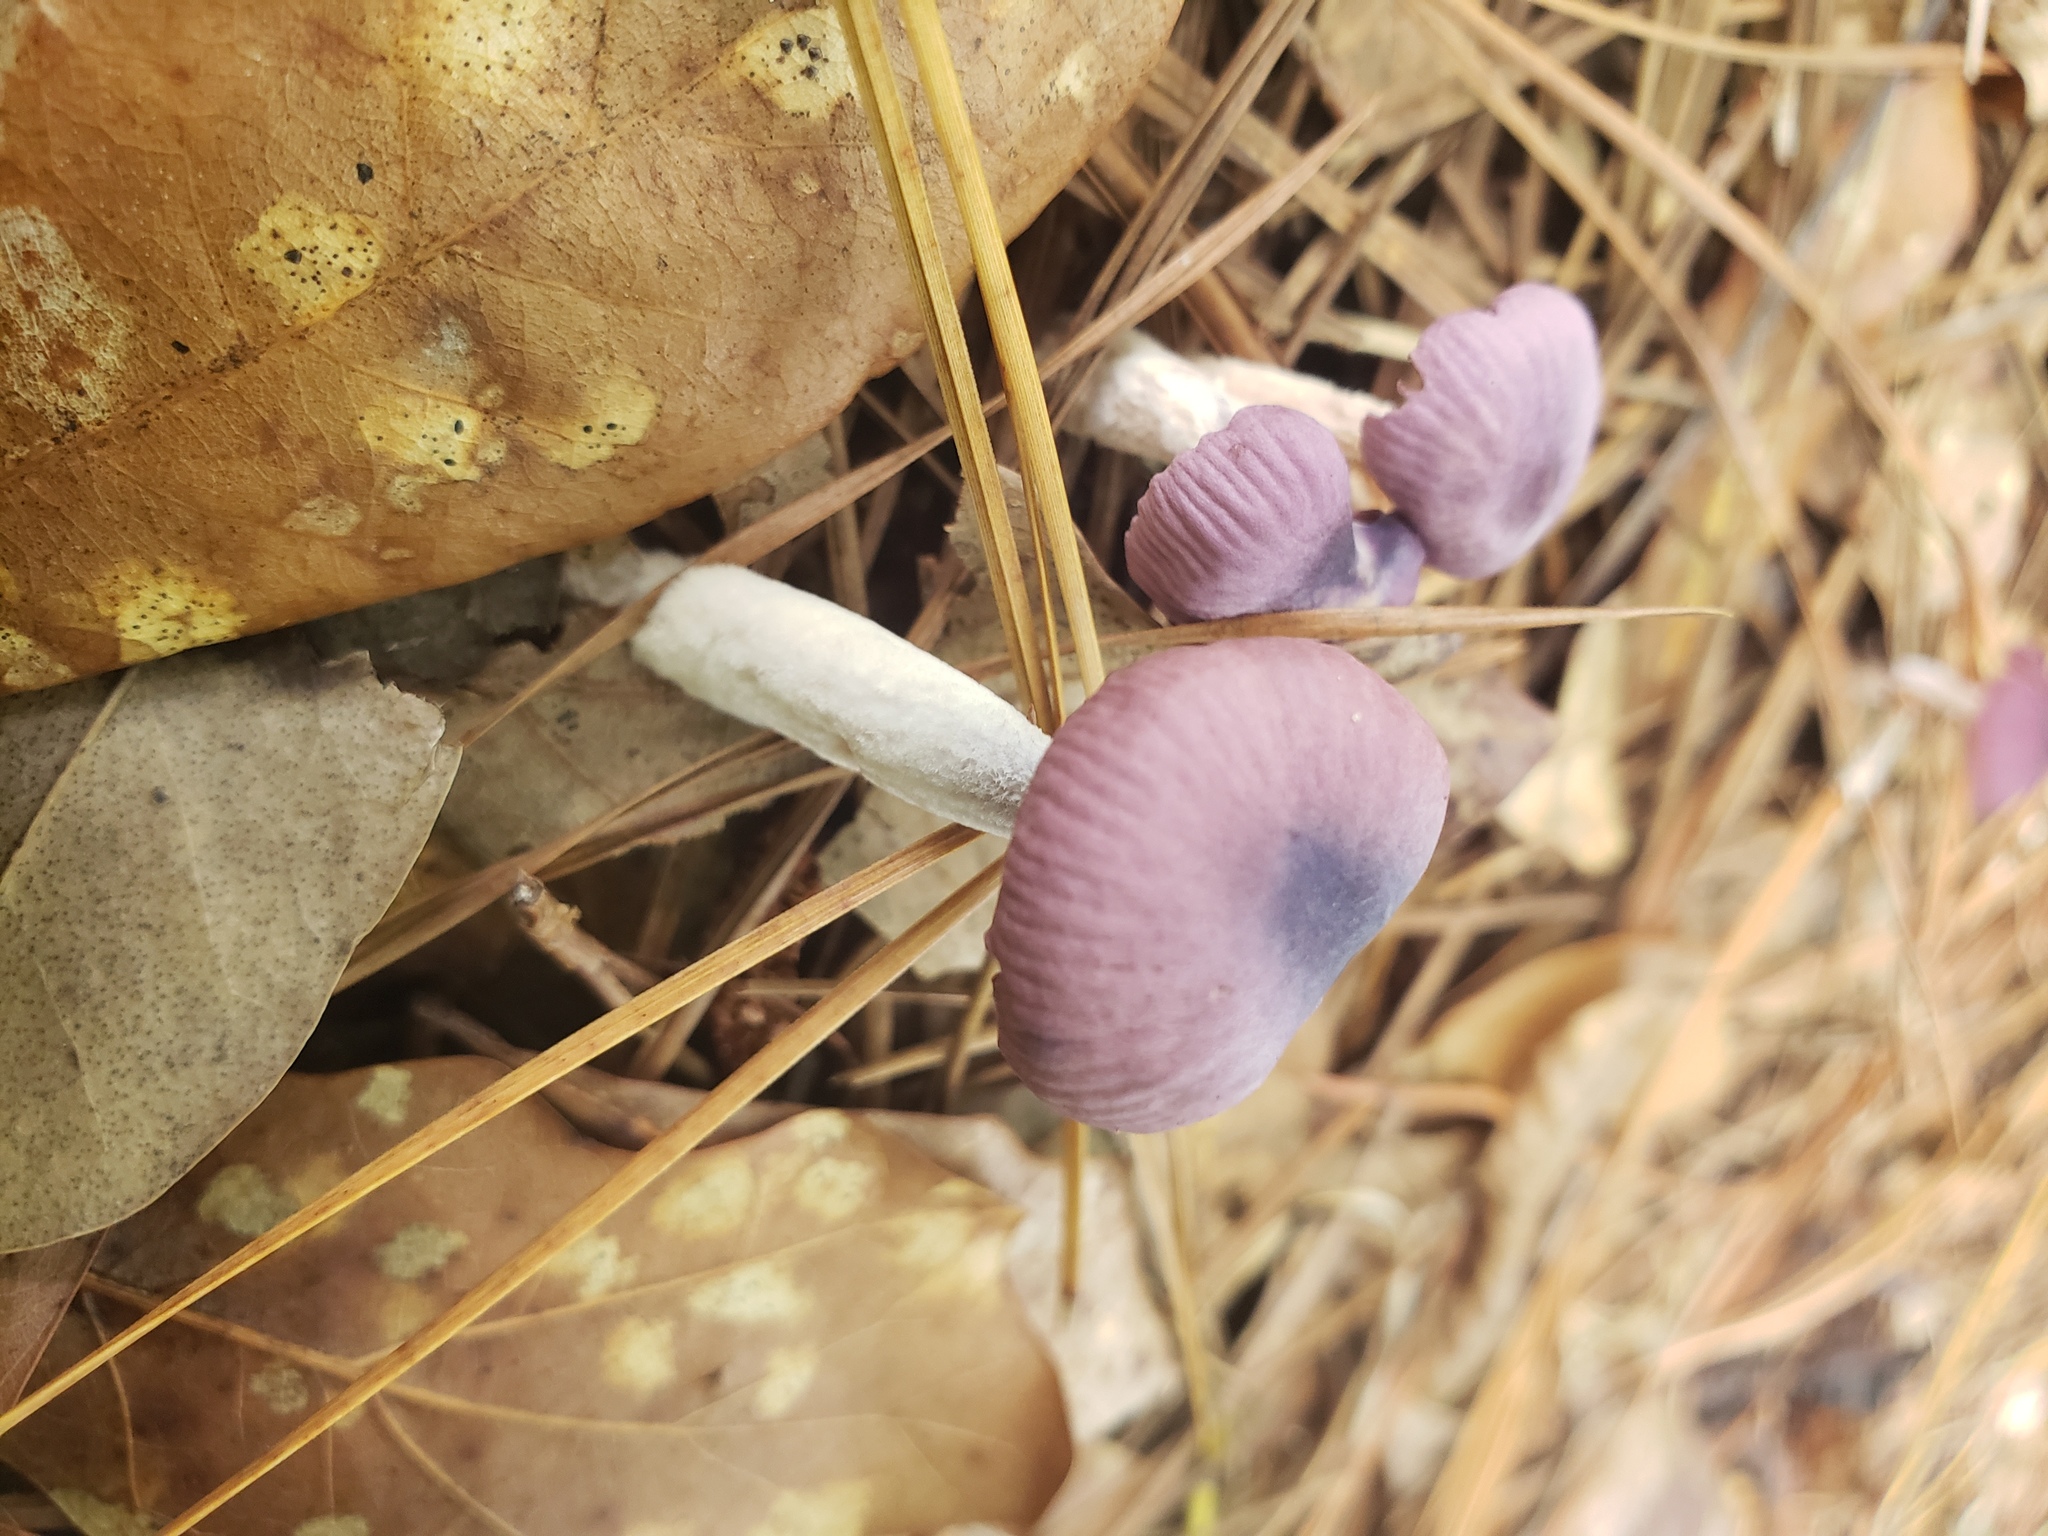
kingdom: Fungi
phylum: Basidiomycota
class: Agaricomycetes
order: Agaricales
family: Omphalotaceae
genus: Gymnopus
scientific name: Gymnopus iocephalus
